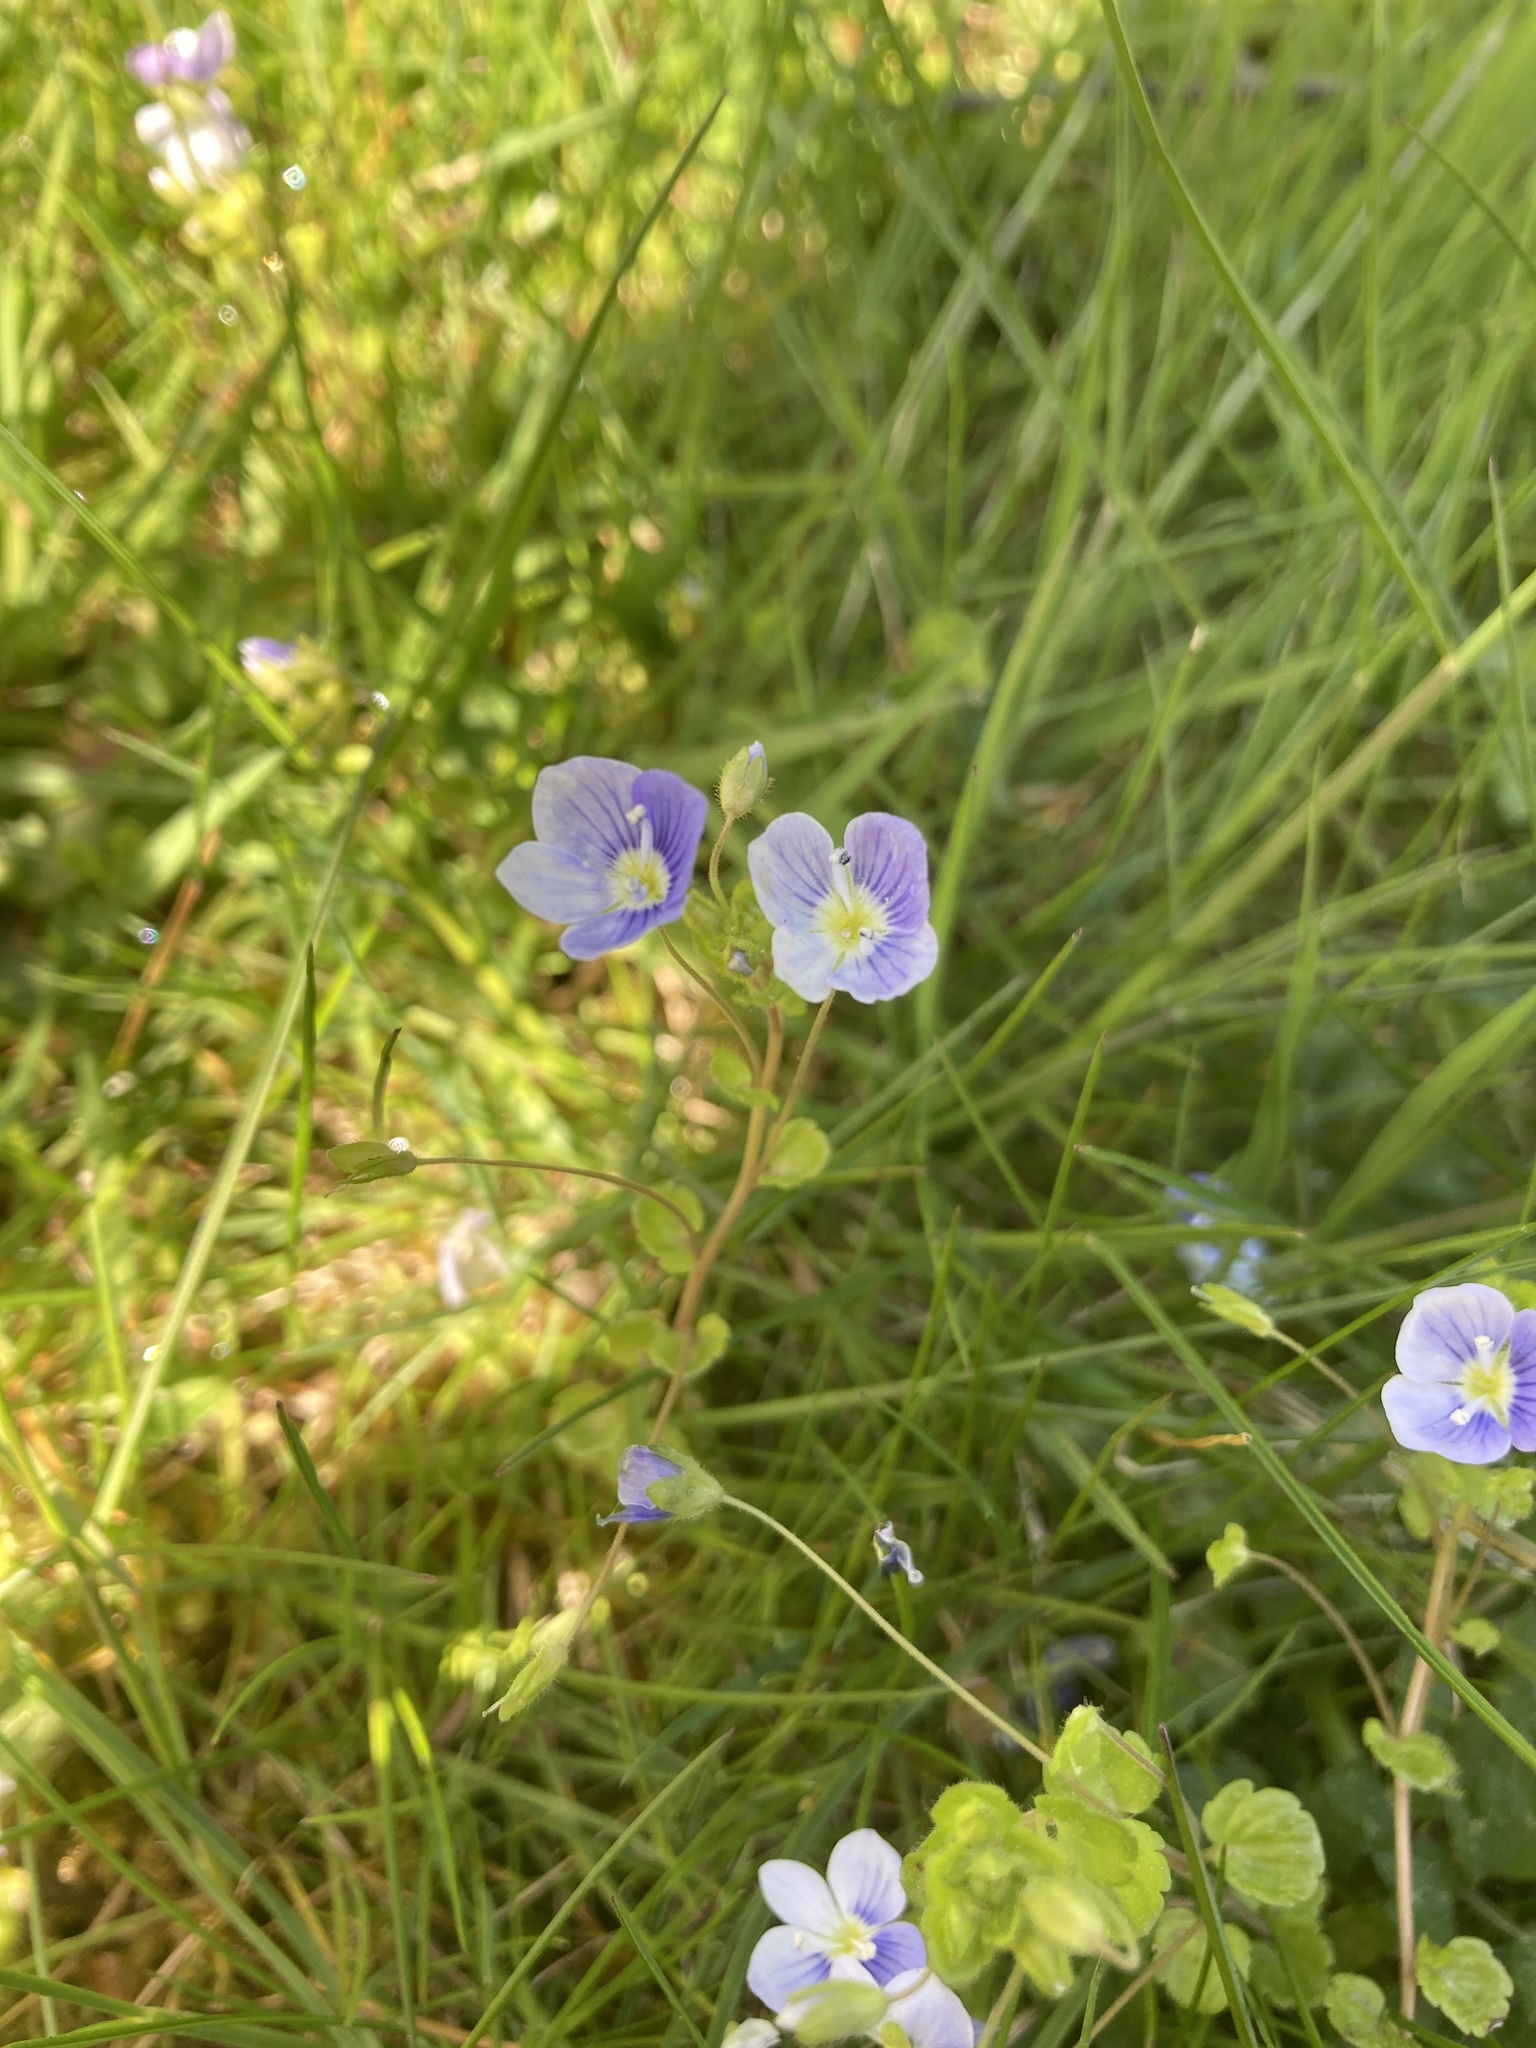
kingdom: Plantae
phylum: Tracheophyta
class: Magnoliopsida
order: Lamiales
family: Plantaginaceae
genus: Veronica
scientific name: Veronica filiformis
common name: Slender speedwell
